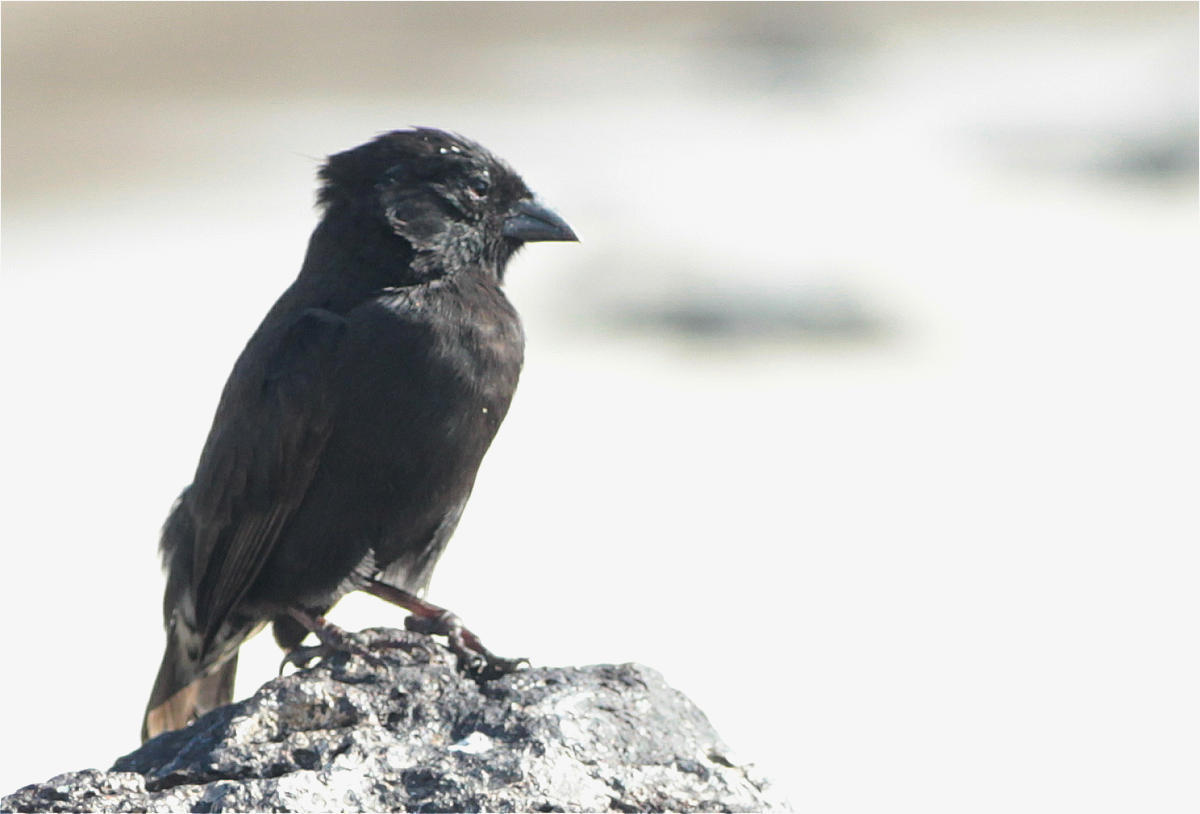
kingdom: Animalia
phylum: Chordata
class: Aves
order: Passeriformes
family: Thraupidae
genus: Geospiza
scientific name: Geospiza fuliginosa
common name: Small ground finch
